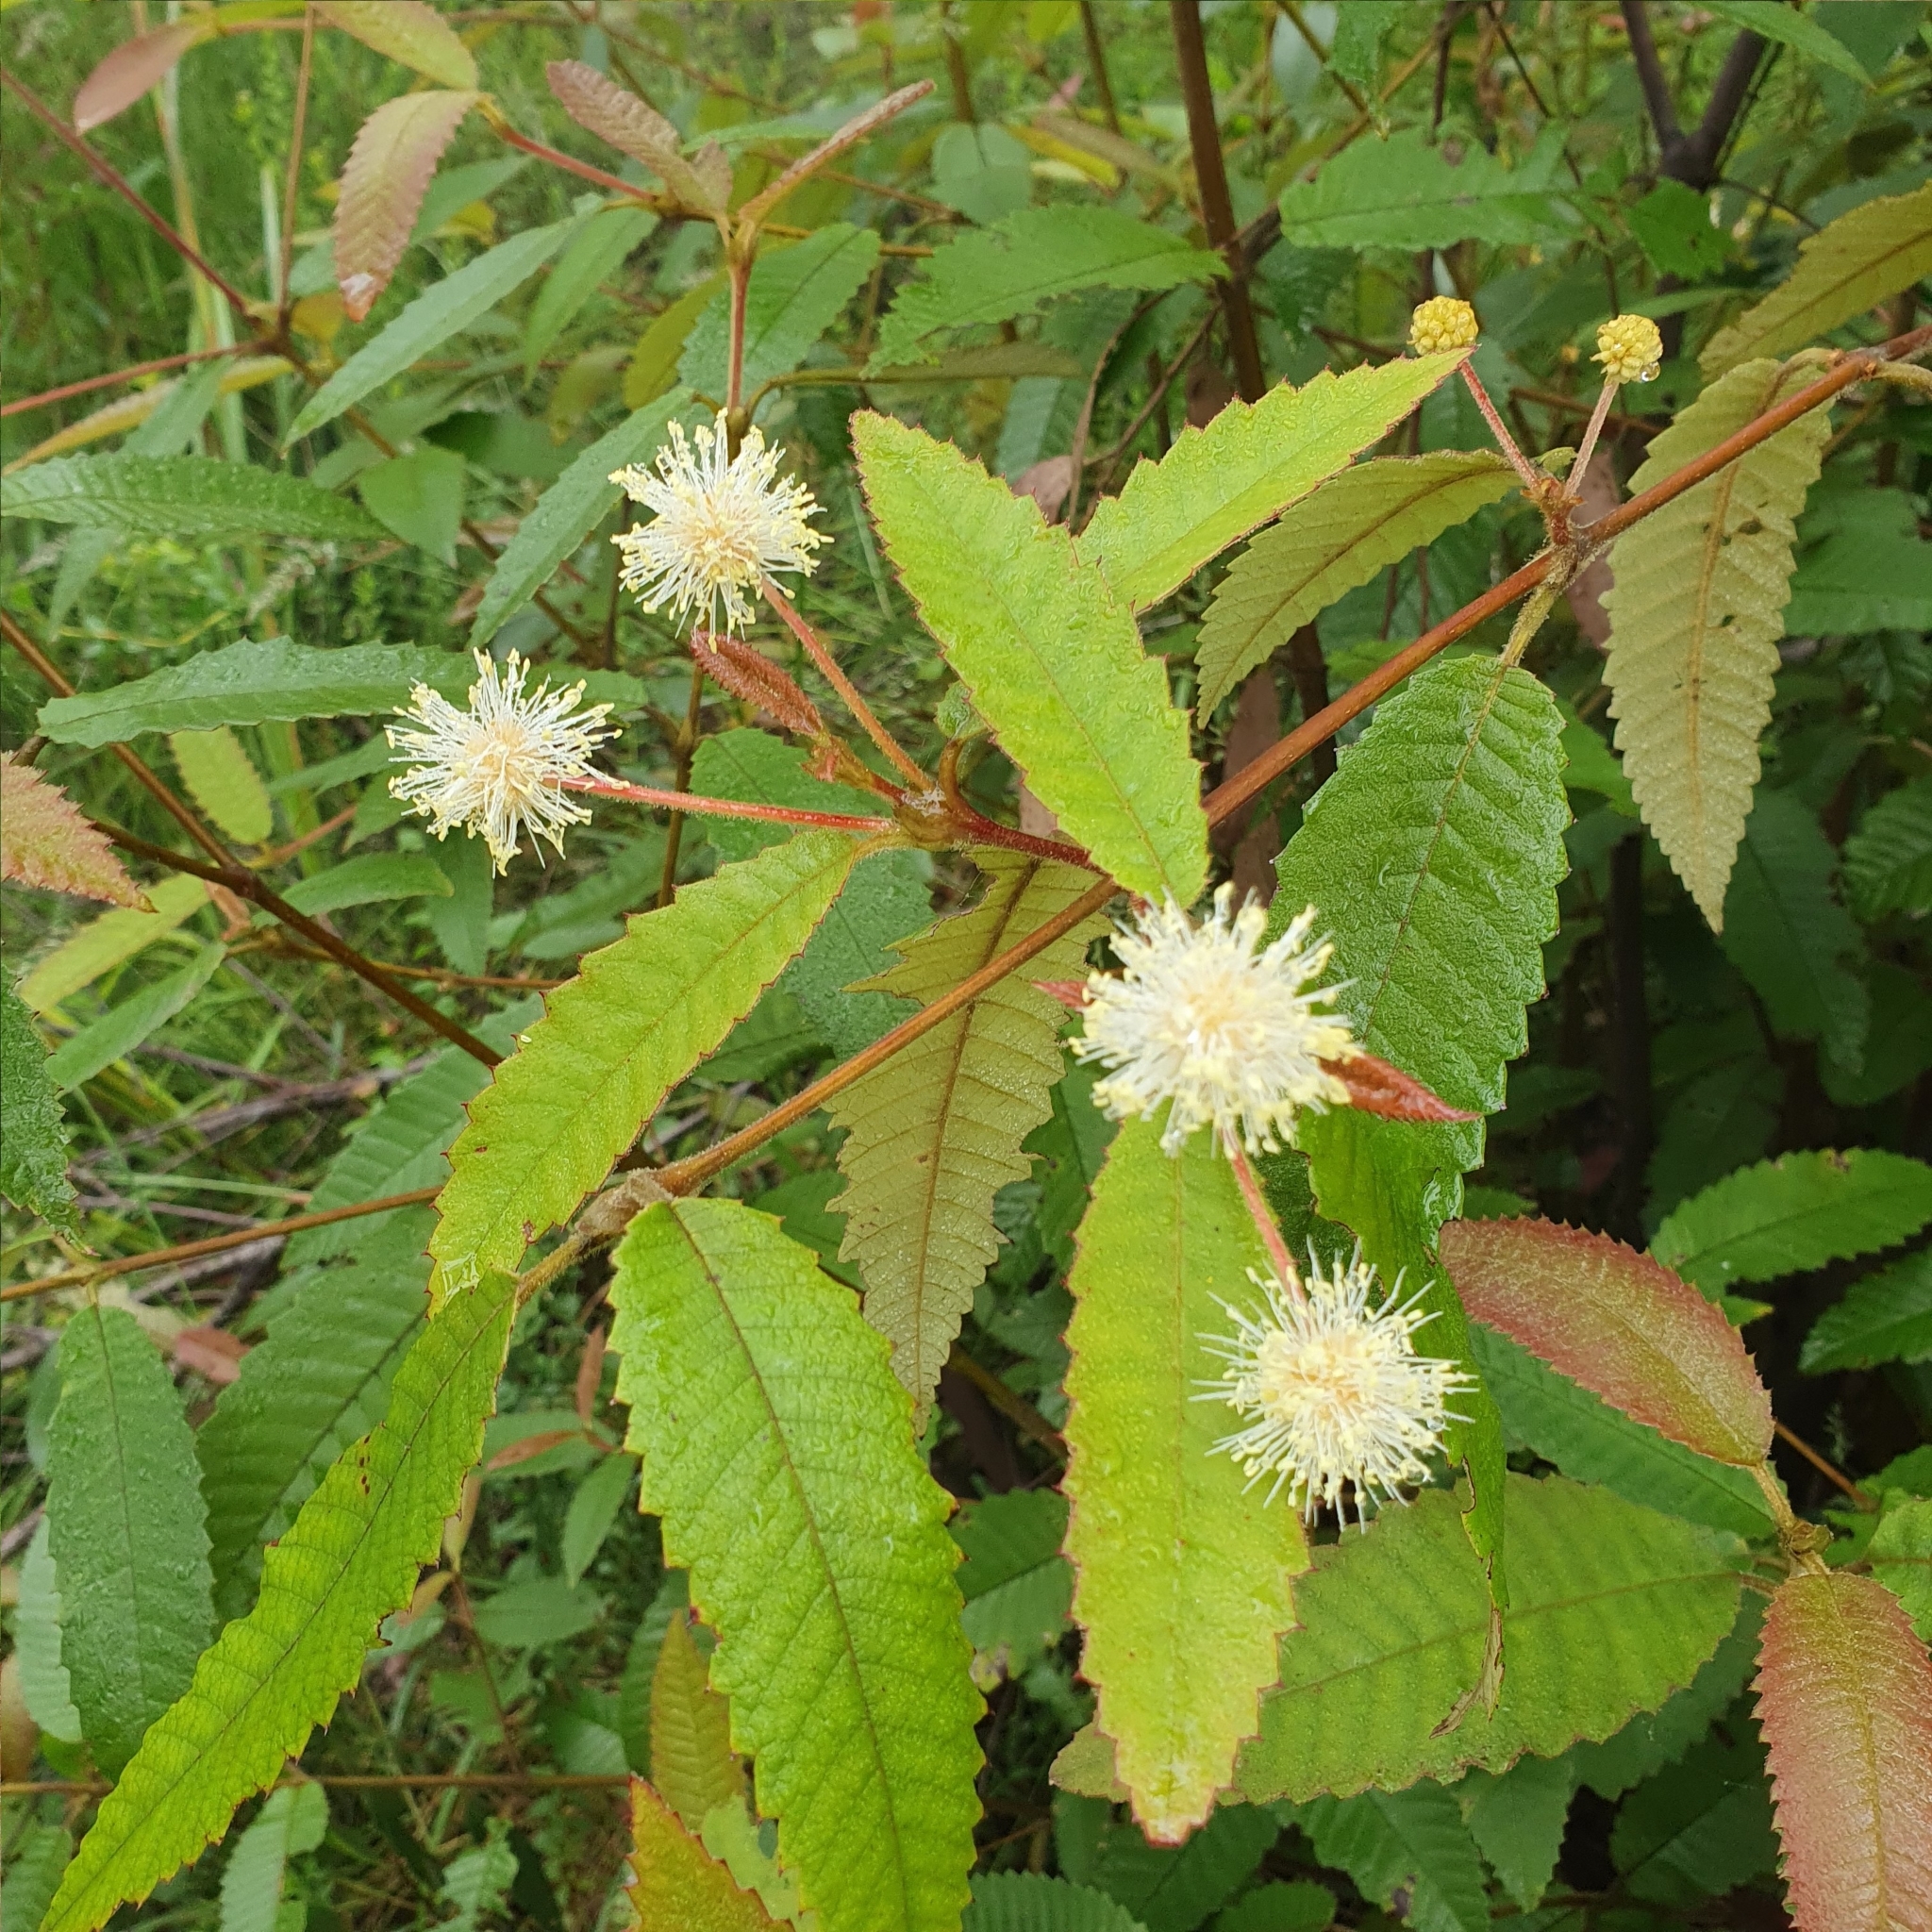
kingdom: Plantae
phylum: Tracheophyta
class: Magnoliopsida
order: Oxalidales
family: Cunoniaceae
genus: Callicoma
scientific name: Callicoma serratifolia
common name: Black wattle
